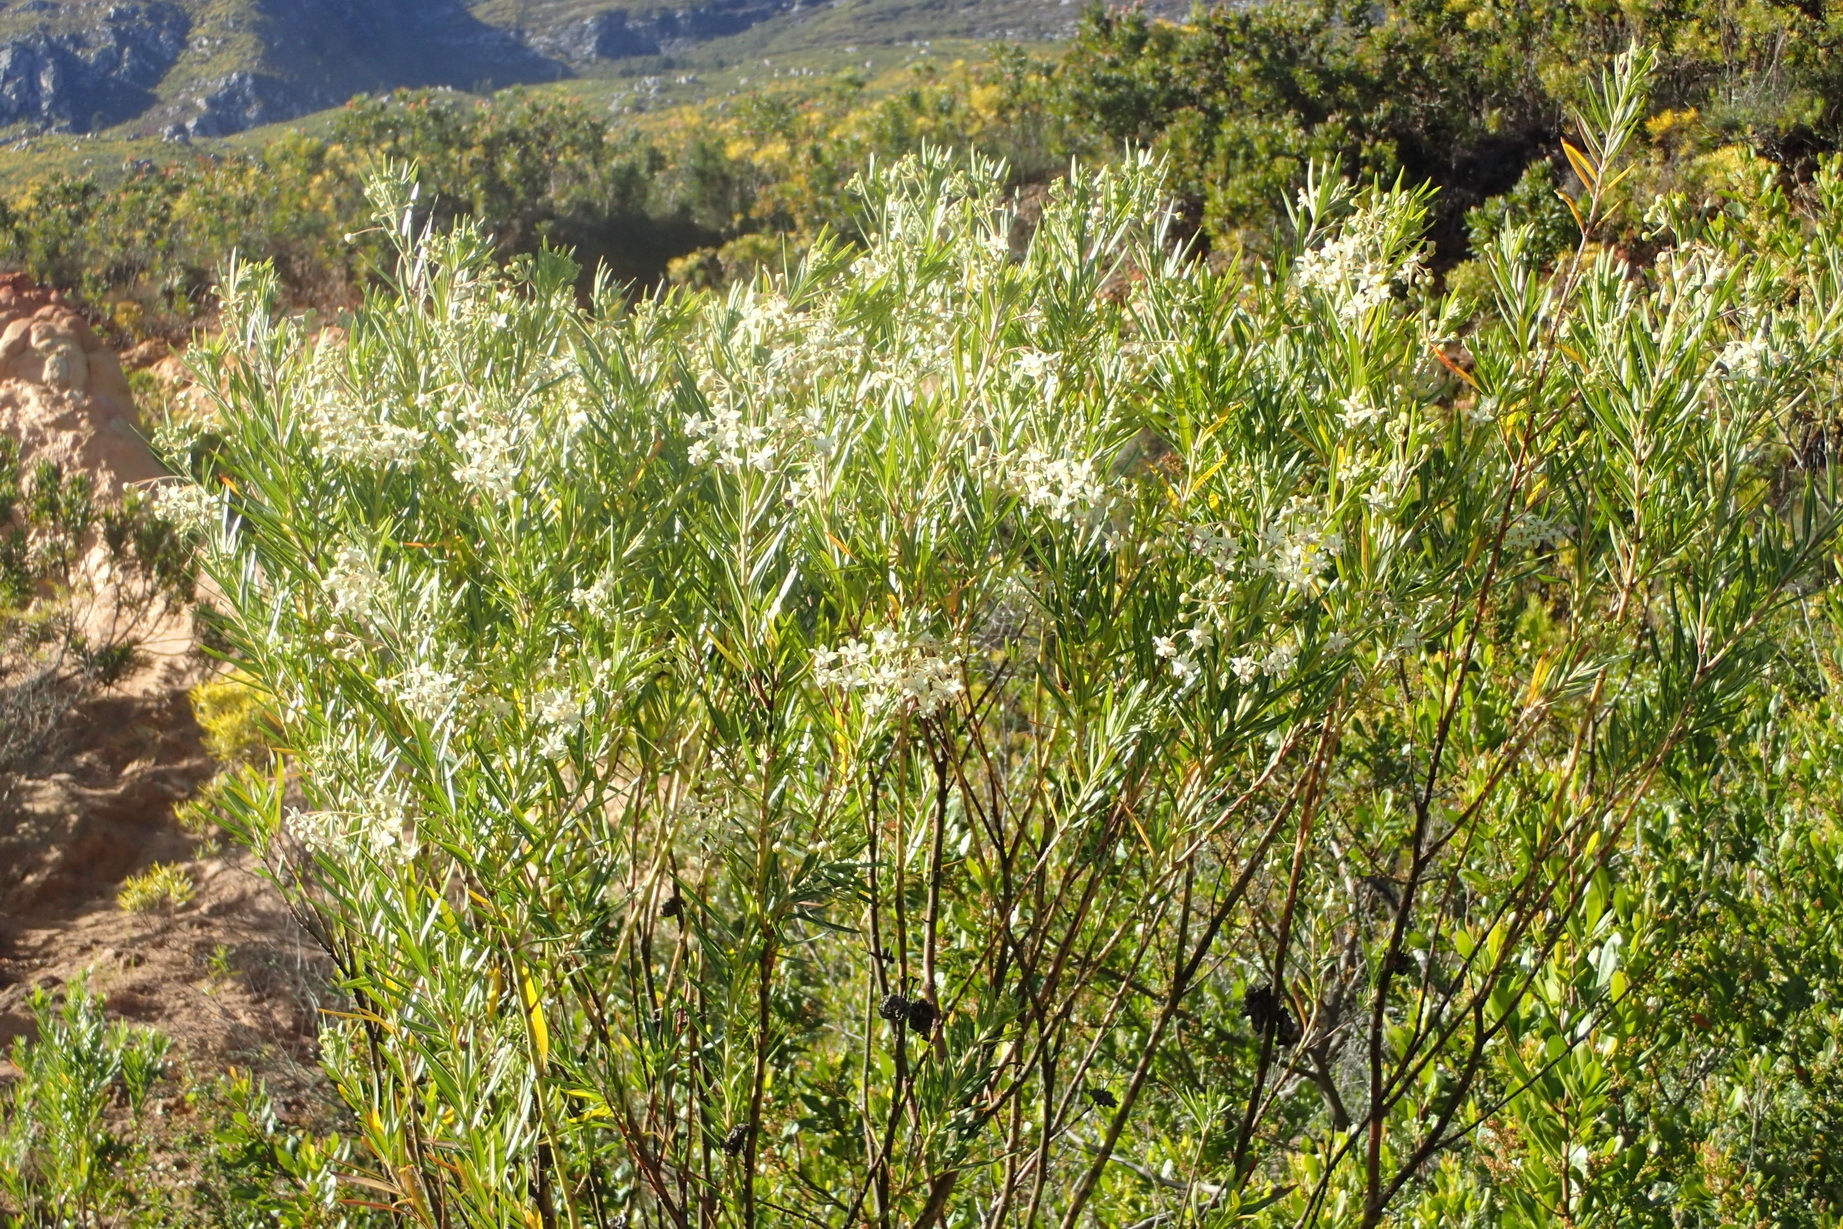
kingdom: Plantae
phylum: Tracheophyta
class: Magnoliopsida
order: Gentianales
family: Apocynaceae
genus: Gomphocarpus
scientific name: Gomphocarpus fruticosus
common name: Milkweed
